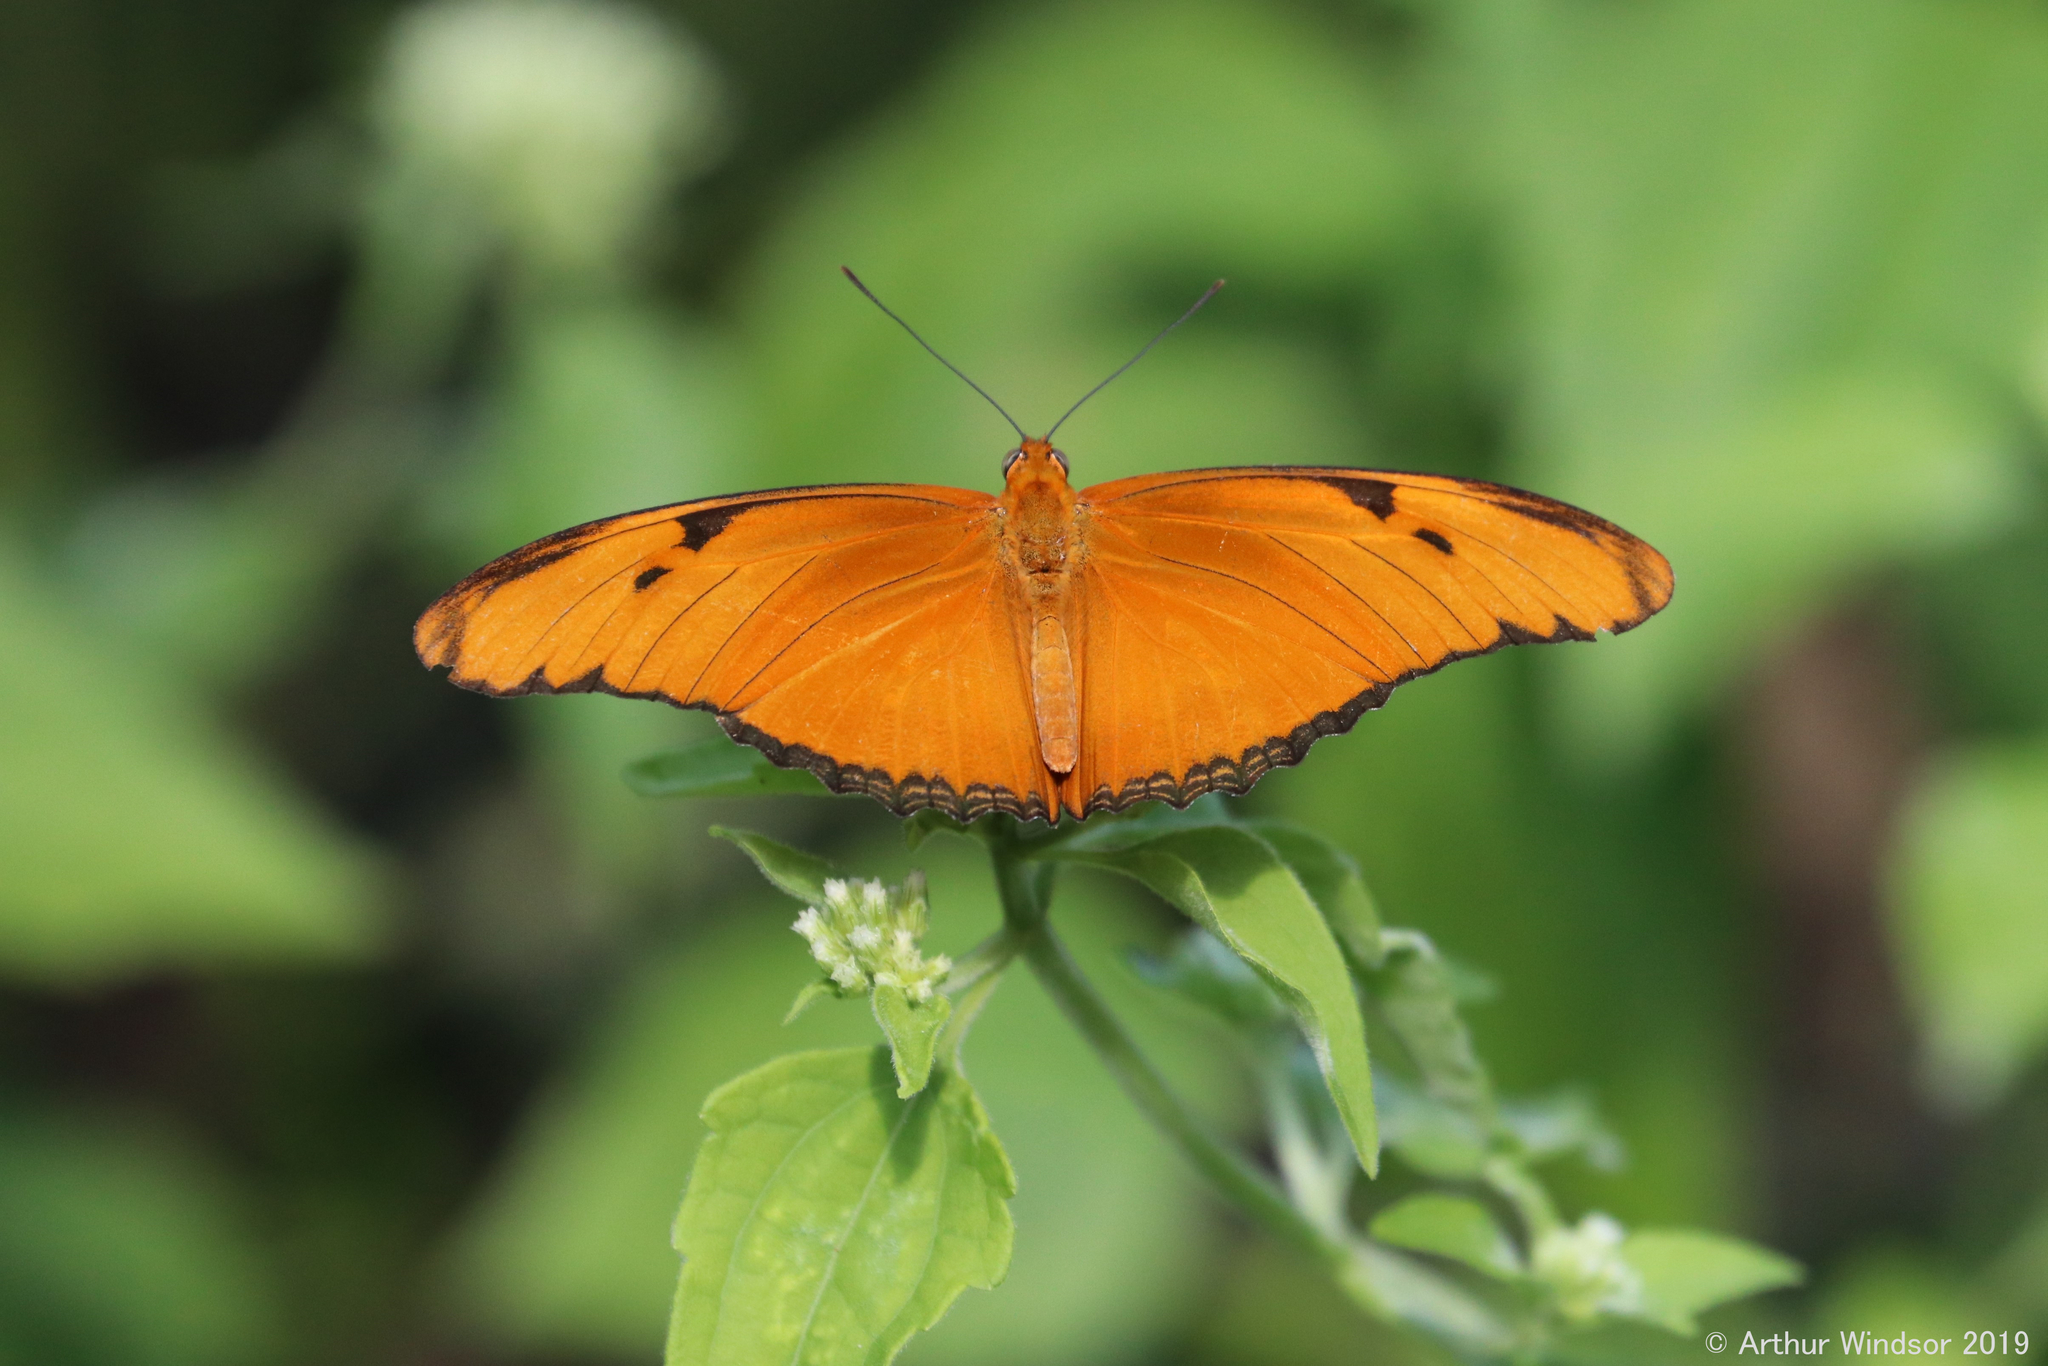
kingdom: Animalia
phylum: Arthropoda
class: Insecta
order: Lepidoptera
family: Nymphalidae
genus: Dryas
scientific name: Dryas iulia
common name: Flambeau
